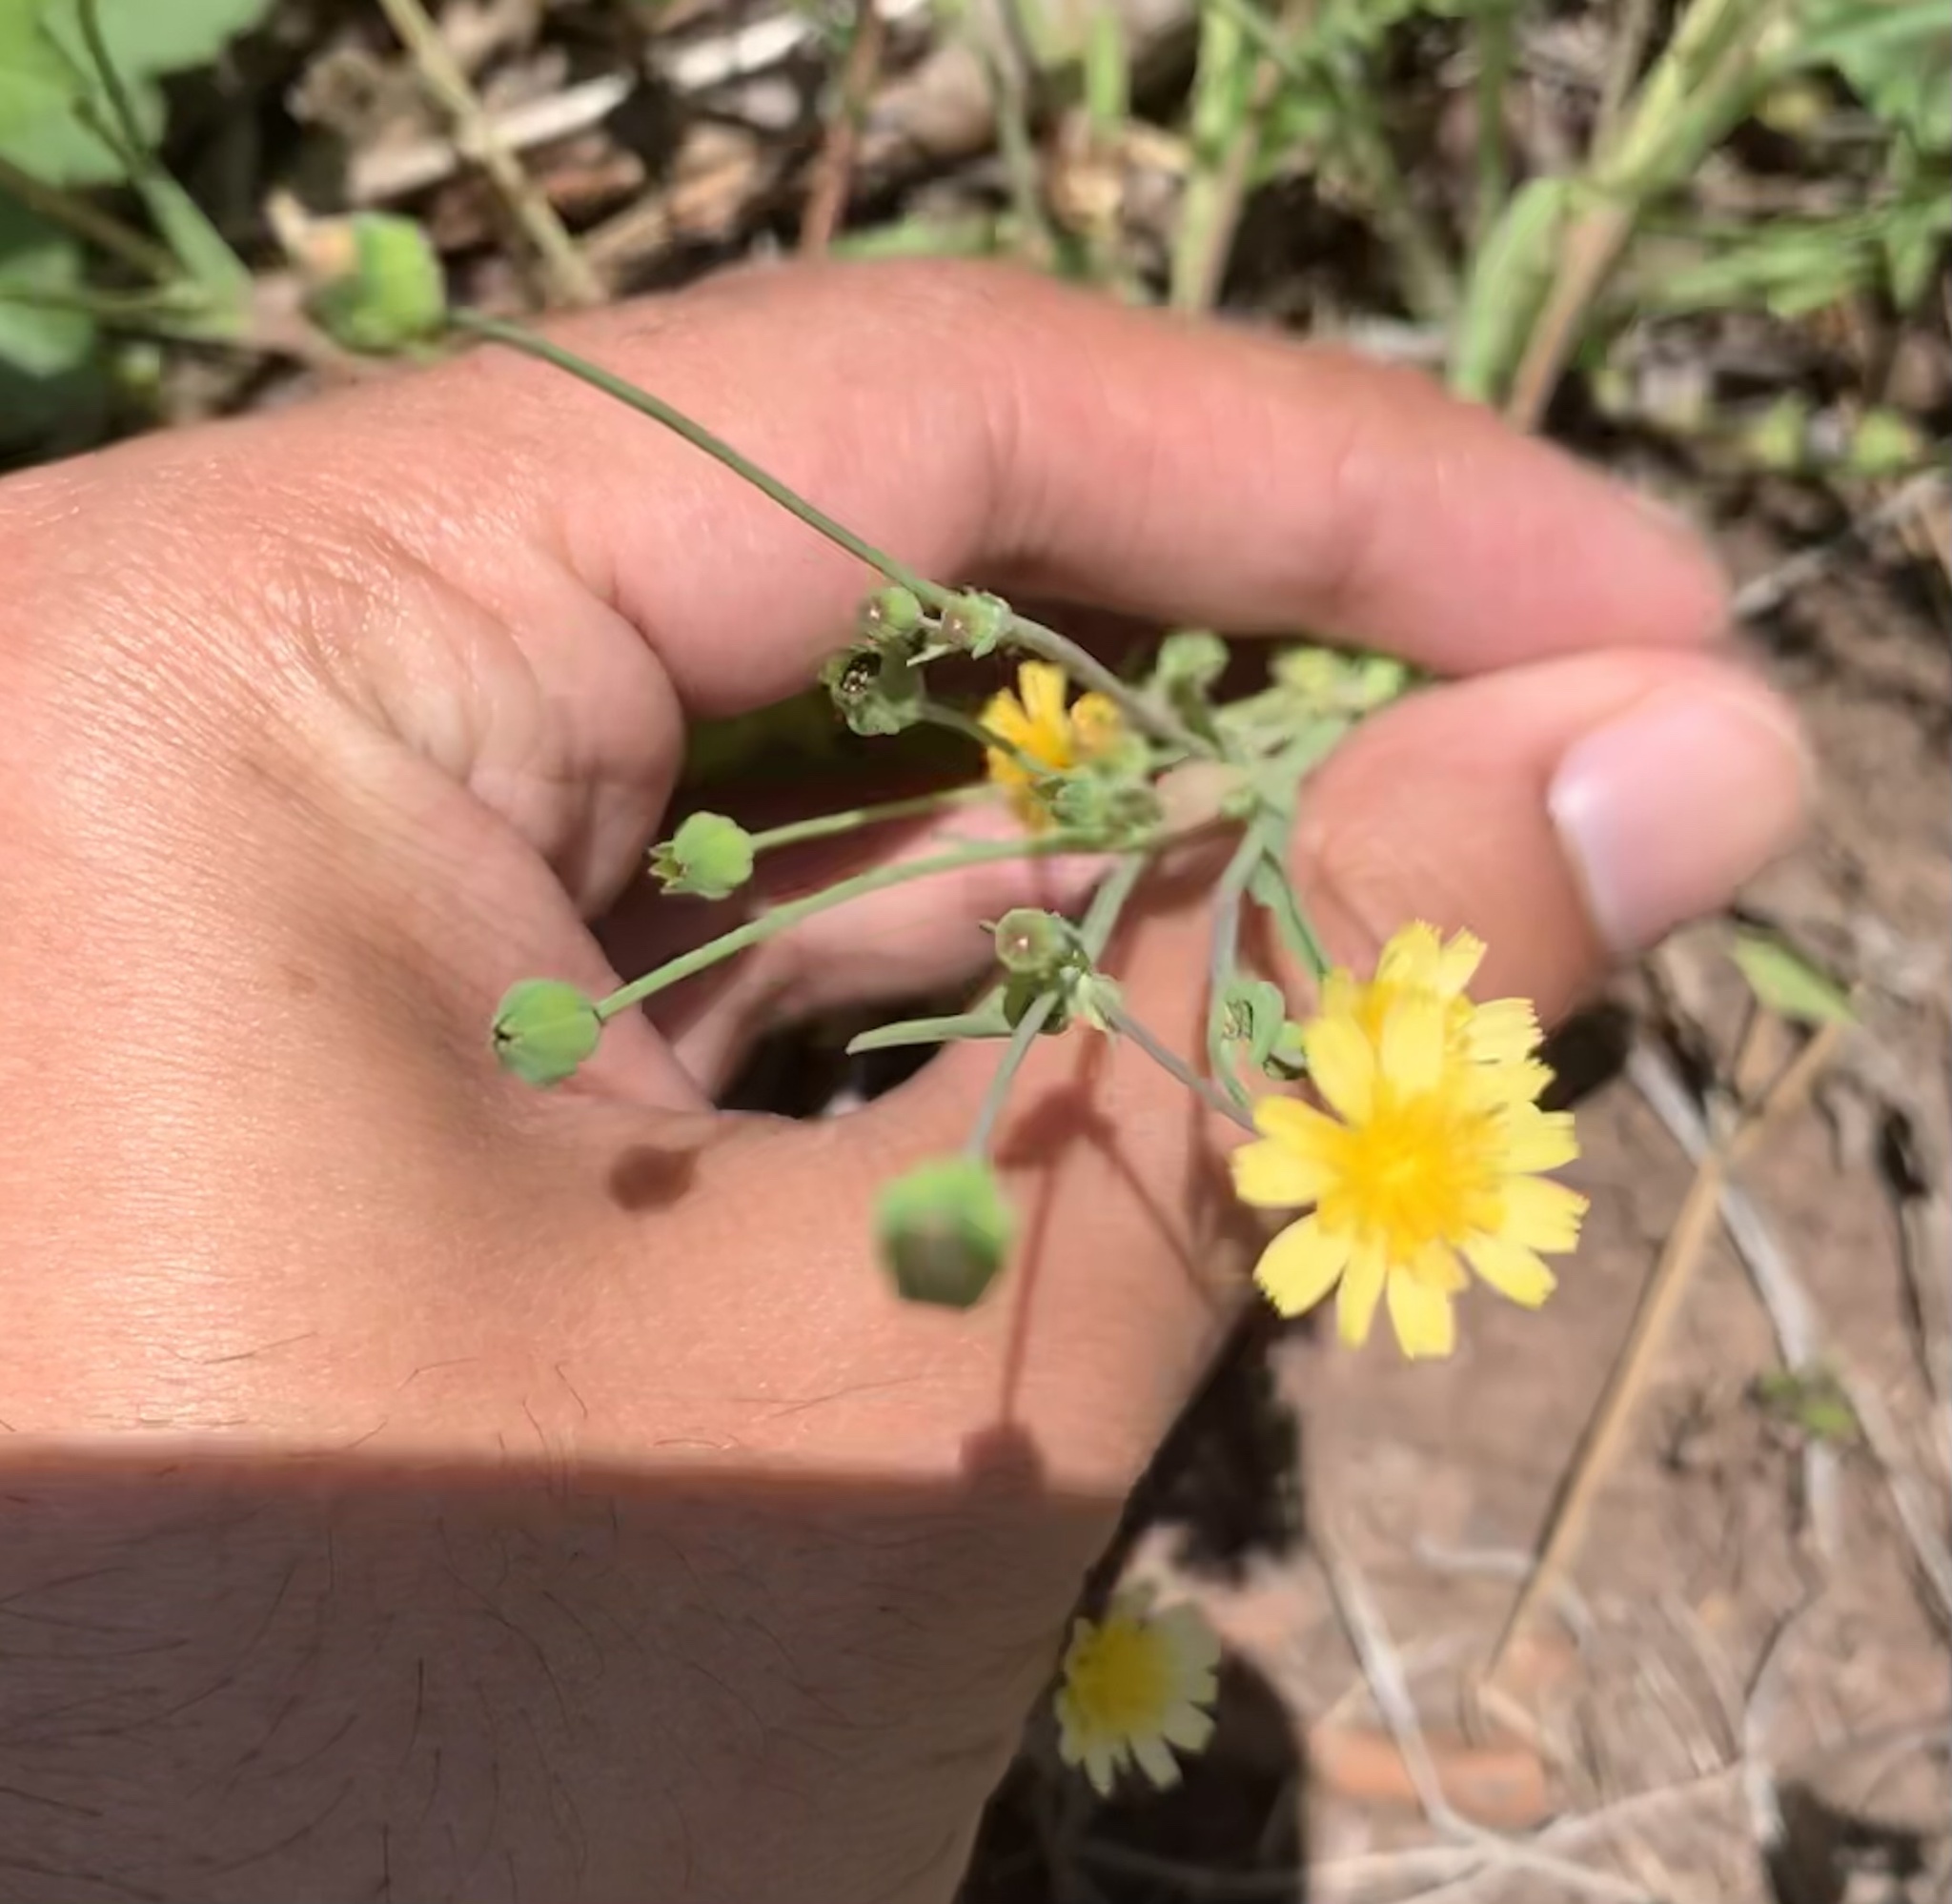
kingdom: Plantae
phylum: Tracheophyta
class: Magnoliopsida
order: Asterales
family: Asteraceae
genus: Krigia
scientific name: Krigia cespitosa
